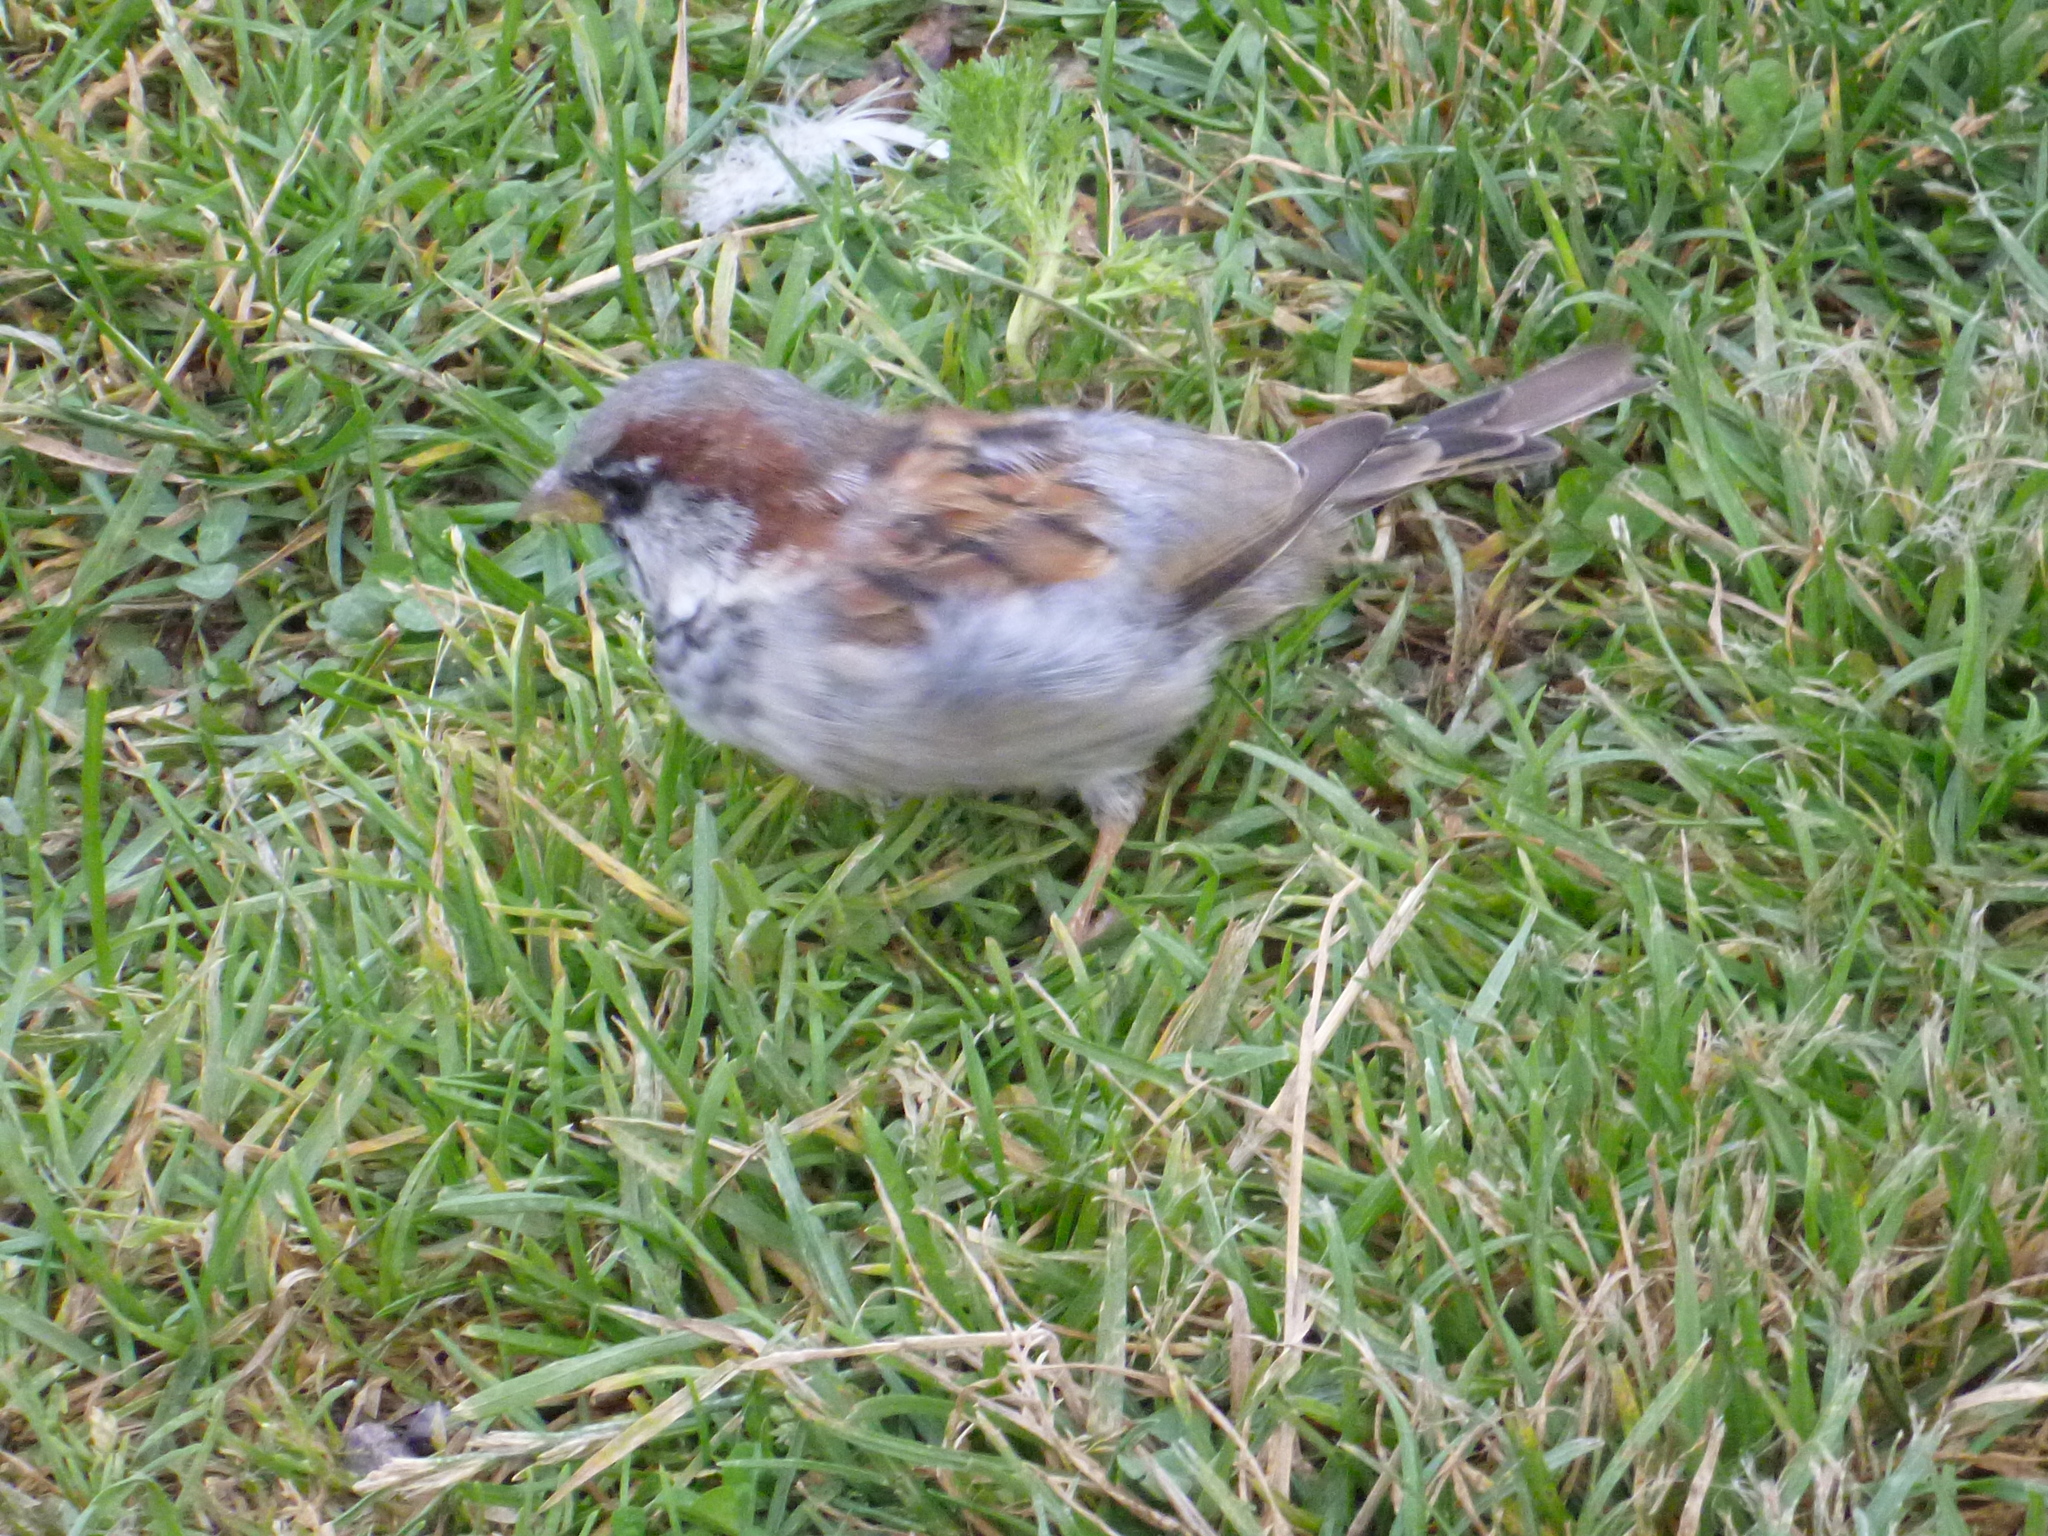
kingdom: Animalia
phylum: Chordata
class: Aves
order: Passeriformes
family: Passeridae
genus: Passer
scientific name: Passer domesticus
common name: House sparrow
